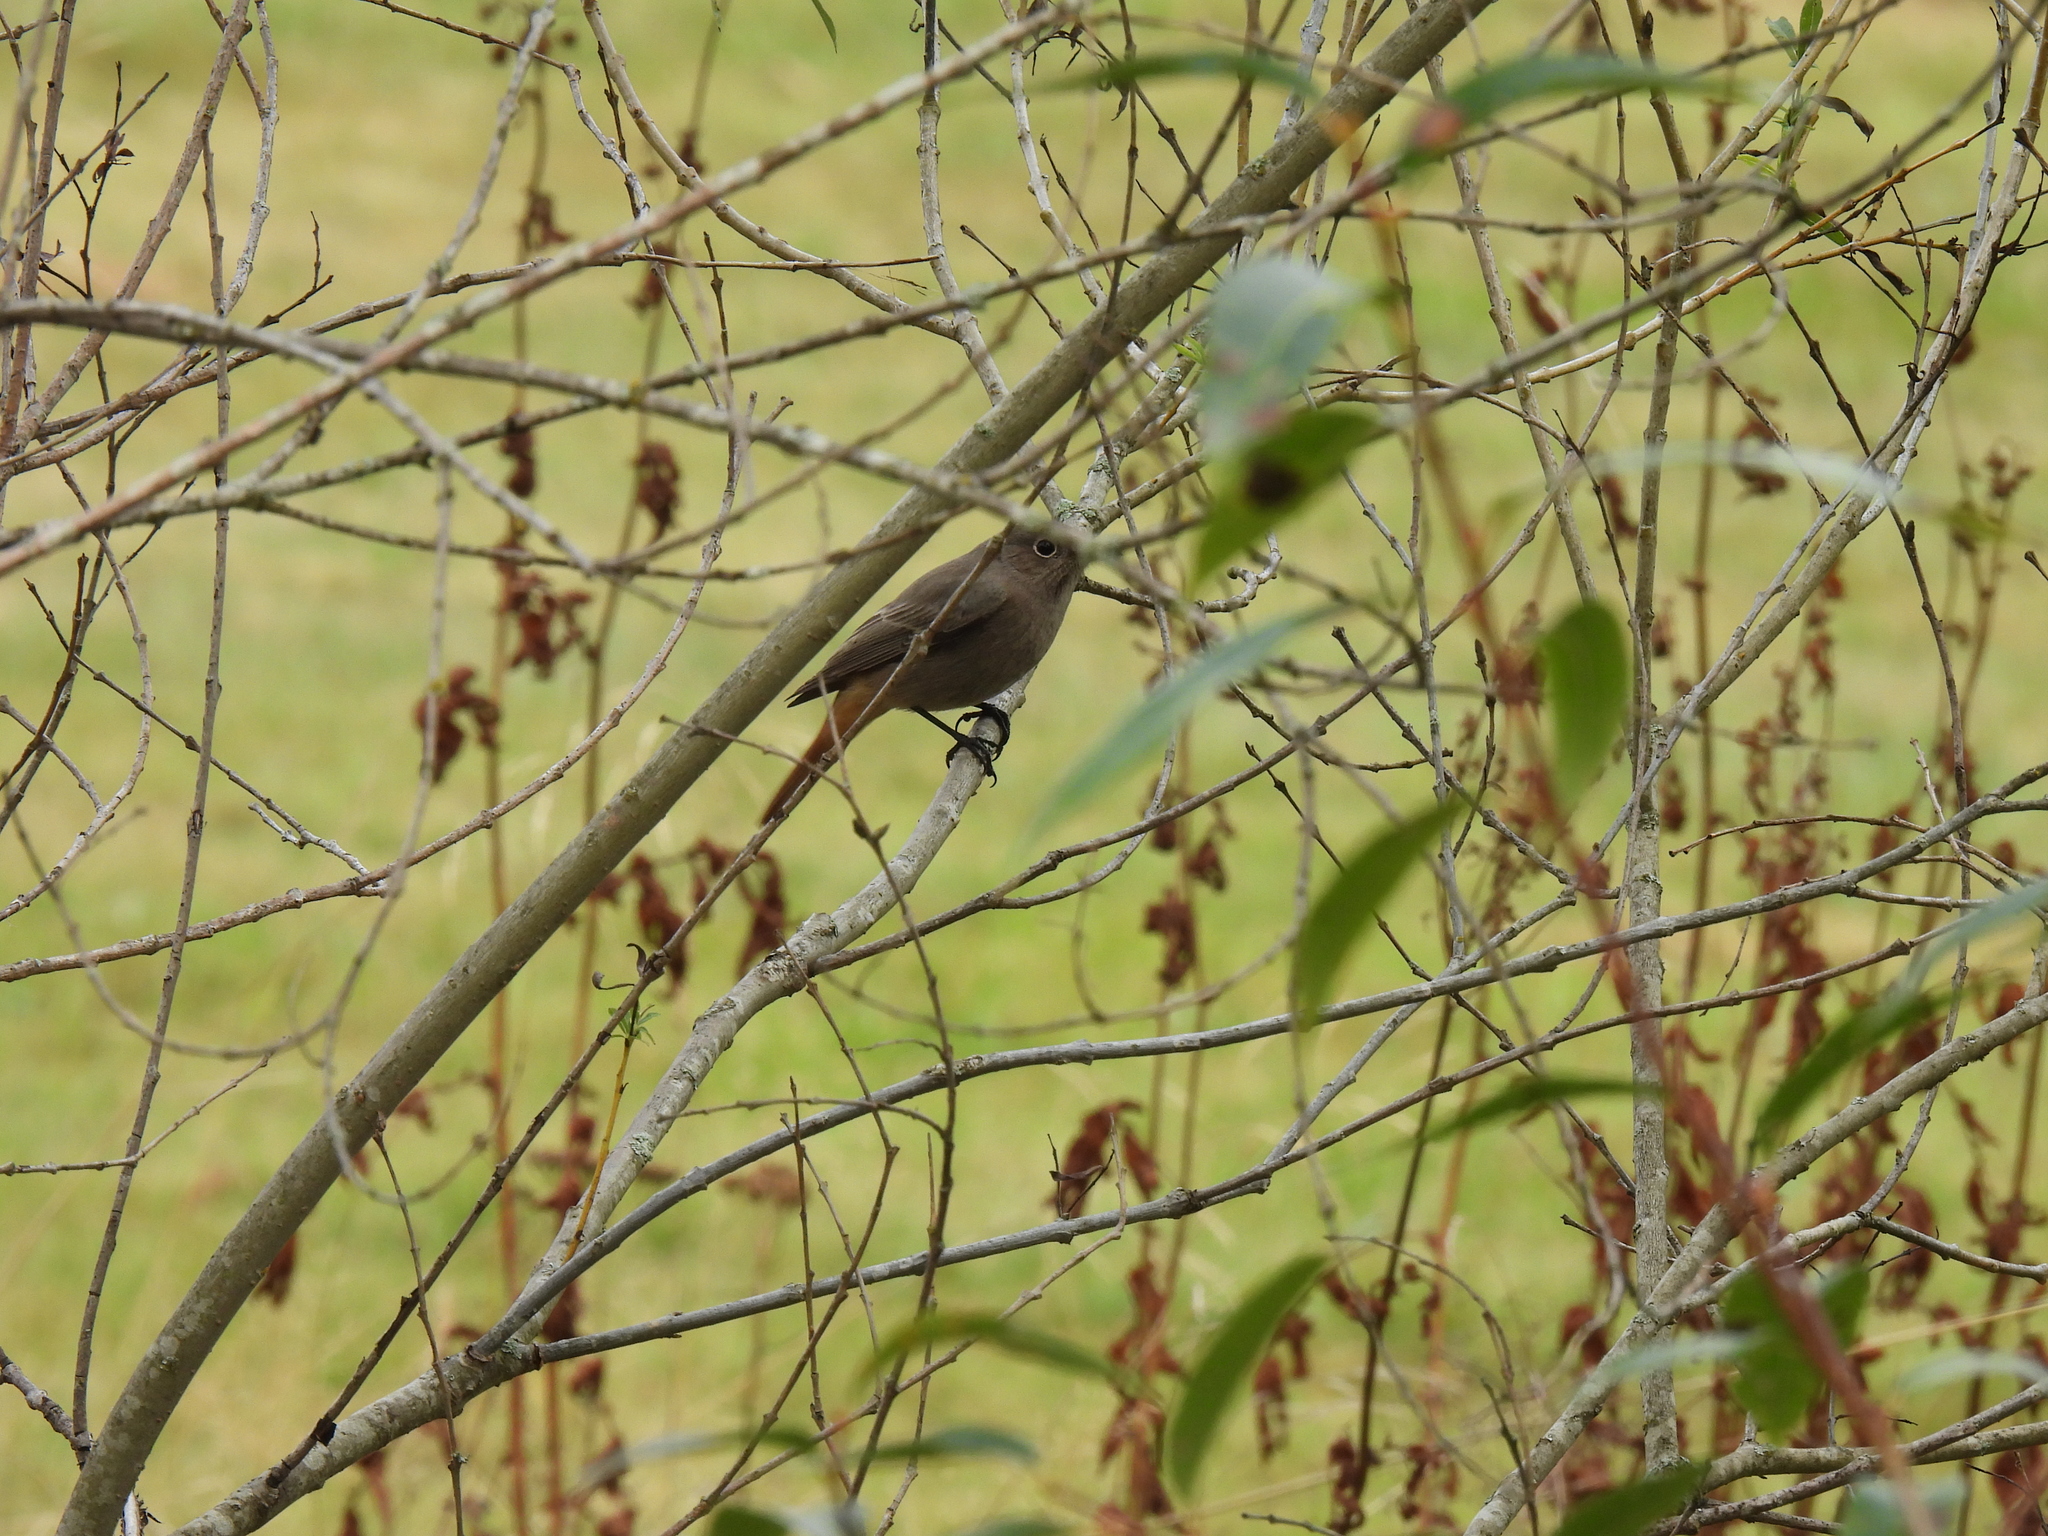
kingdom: Animalia
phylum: Chordata
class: Aves
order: Passeriformes
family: Muscicapidae
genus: Phoenicurus
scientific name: Phoenicurus ochruros
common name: Black redstart
